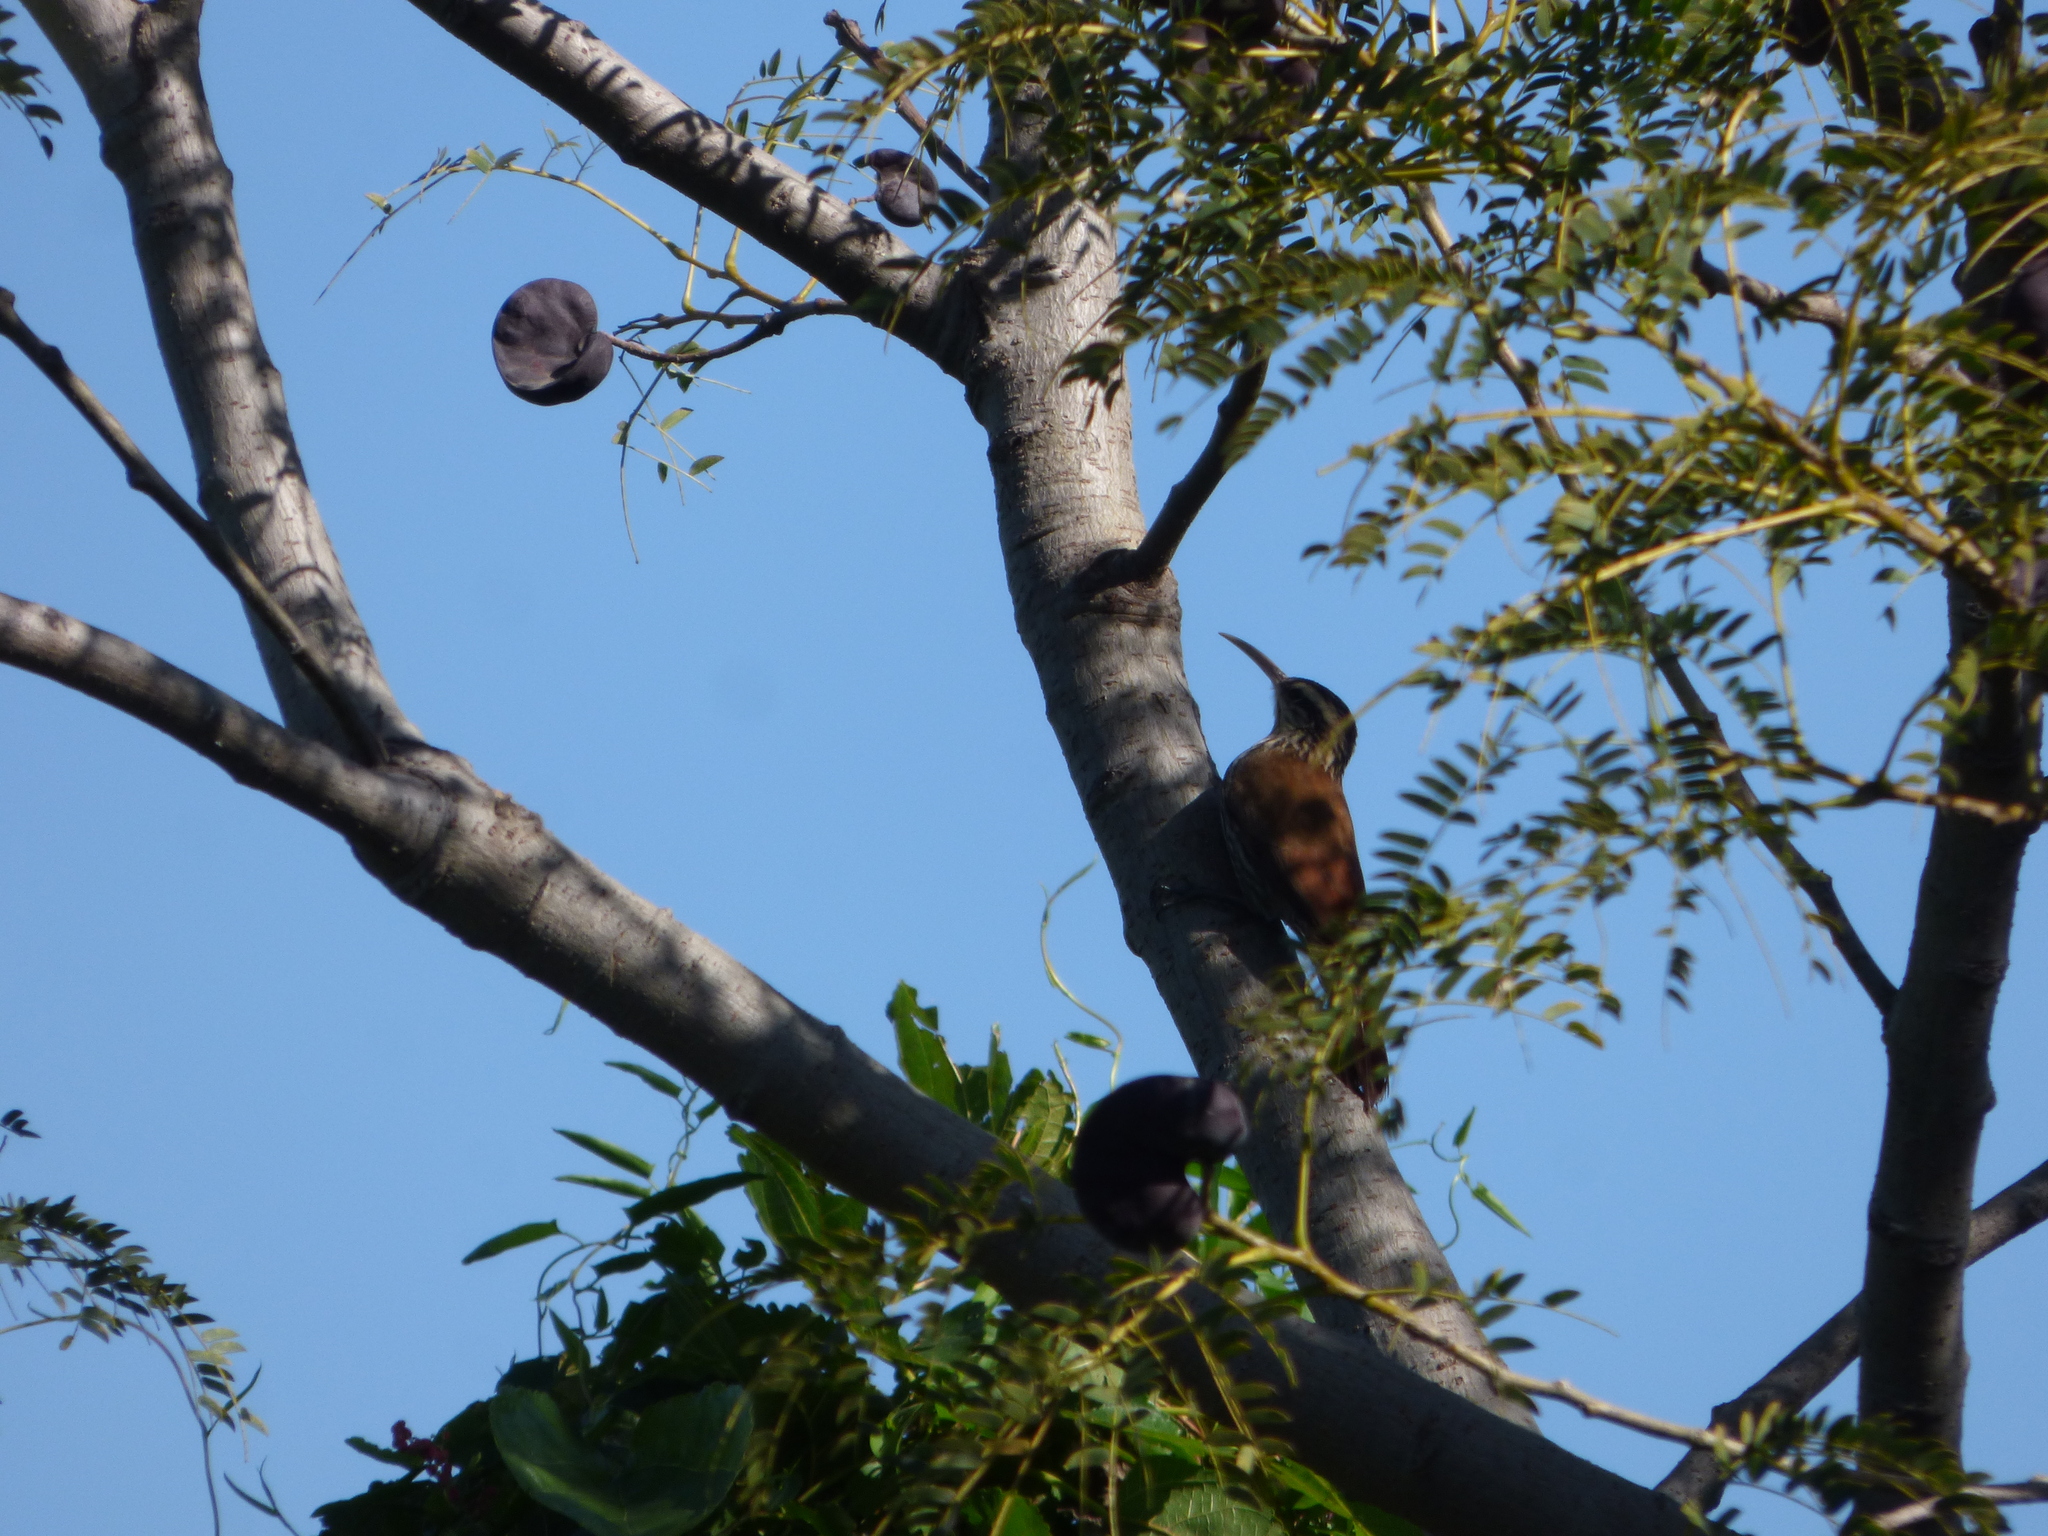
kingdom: Animalia
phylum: Chordata
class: Aves
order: Passeriformes
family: Furnariidae
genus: Lepidocolaptes
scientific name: Lepidocolaptes angustirostris
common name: Narrow-billed woodcreeper
